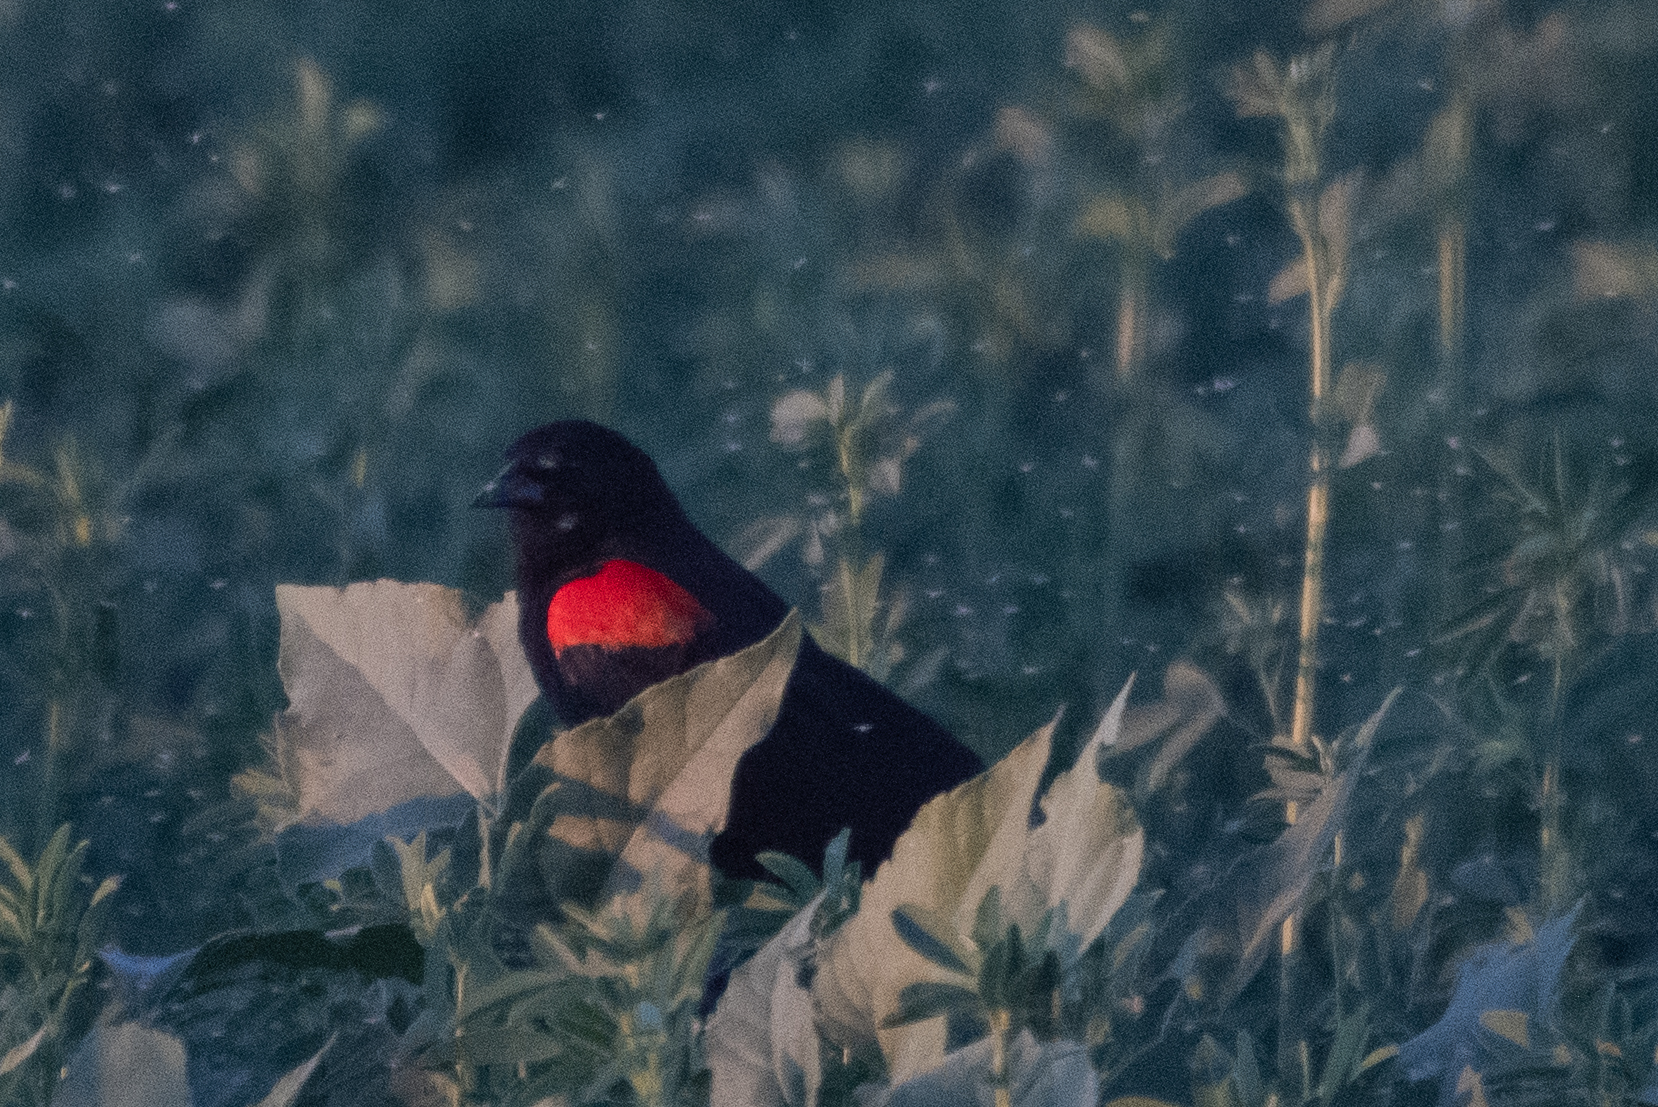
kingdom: Animalia
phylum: Chordata
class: Aves
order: Passeriformes
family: Icteridae
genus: Agelaius
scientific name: Agelaius phoeniceus
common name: Red-winged blackbird
